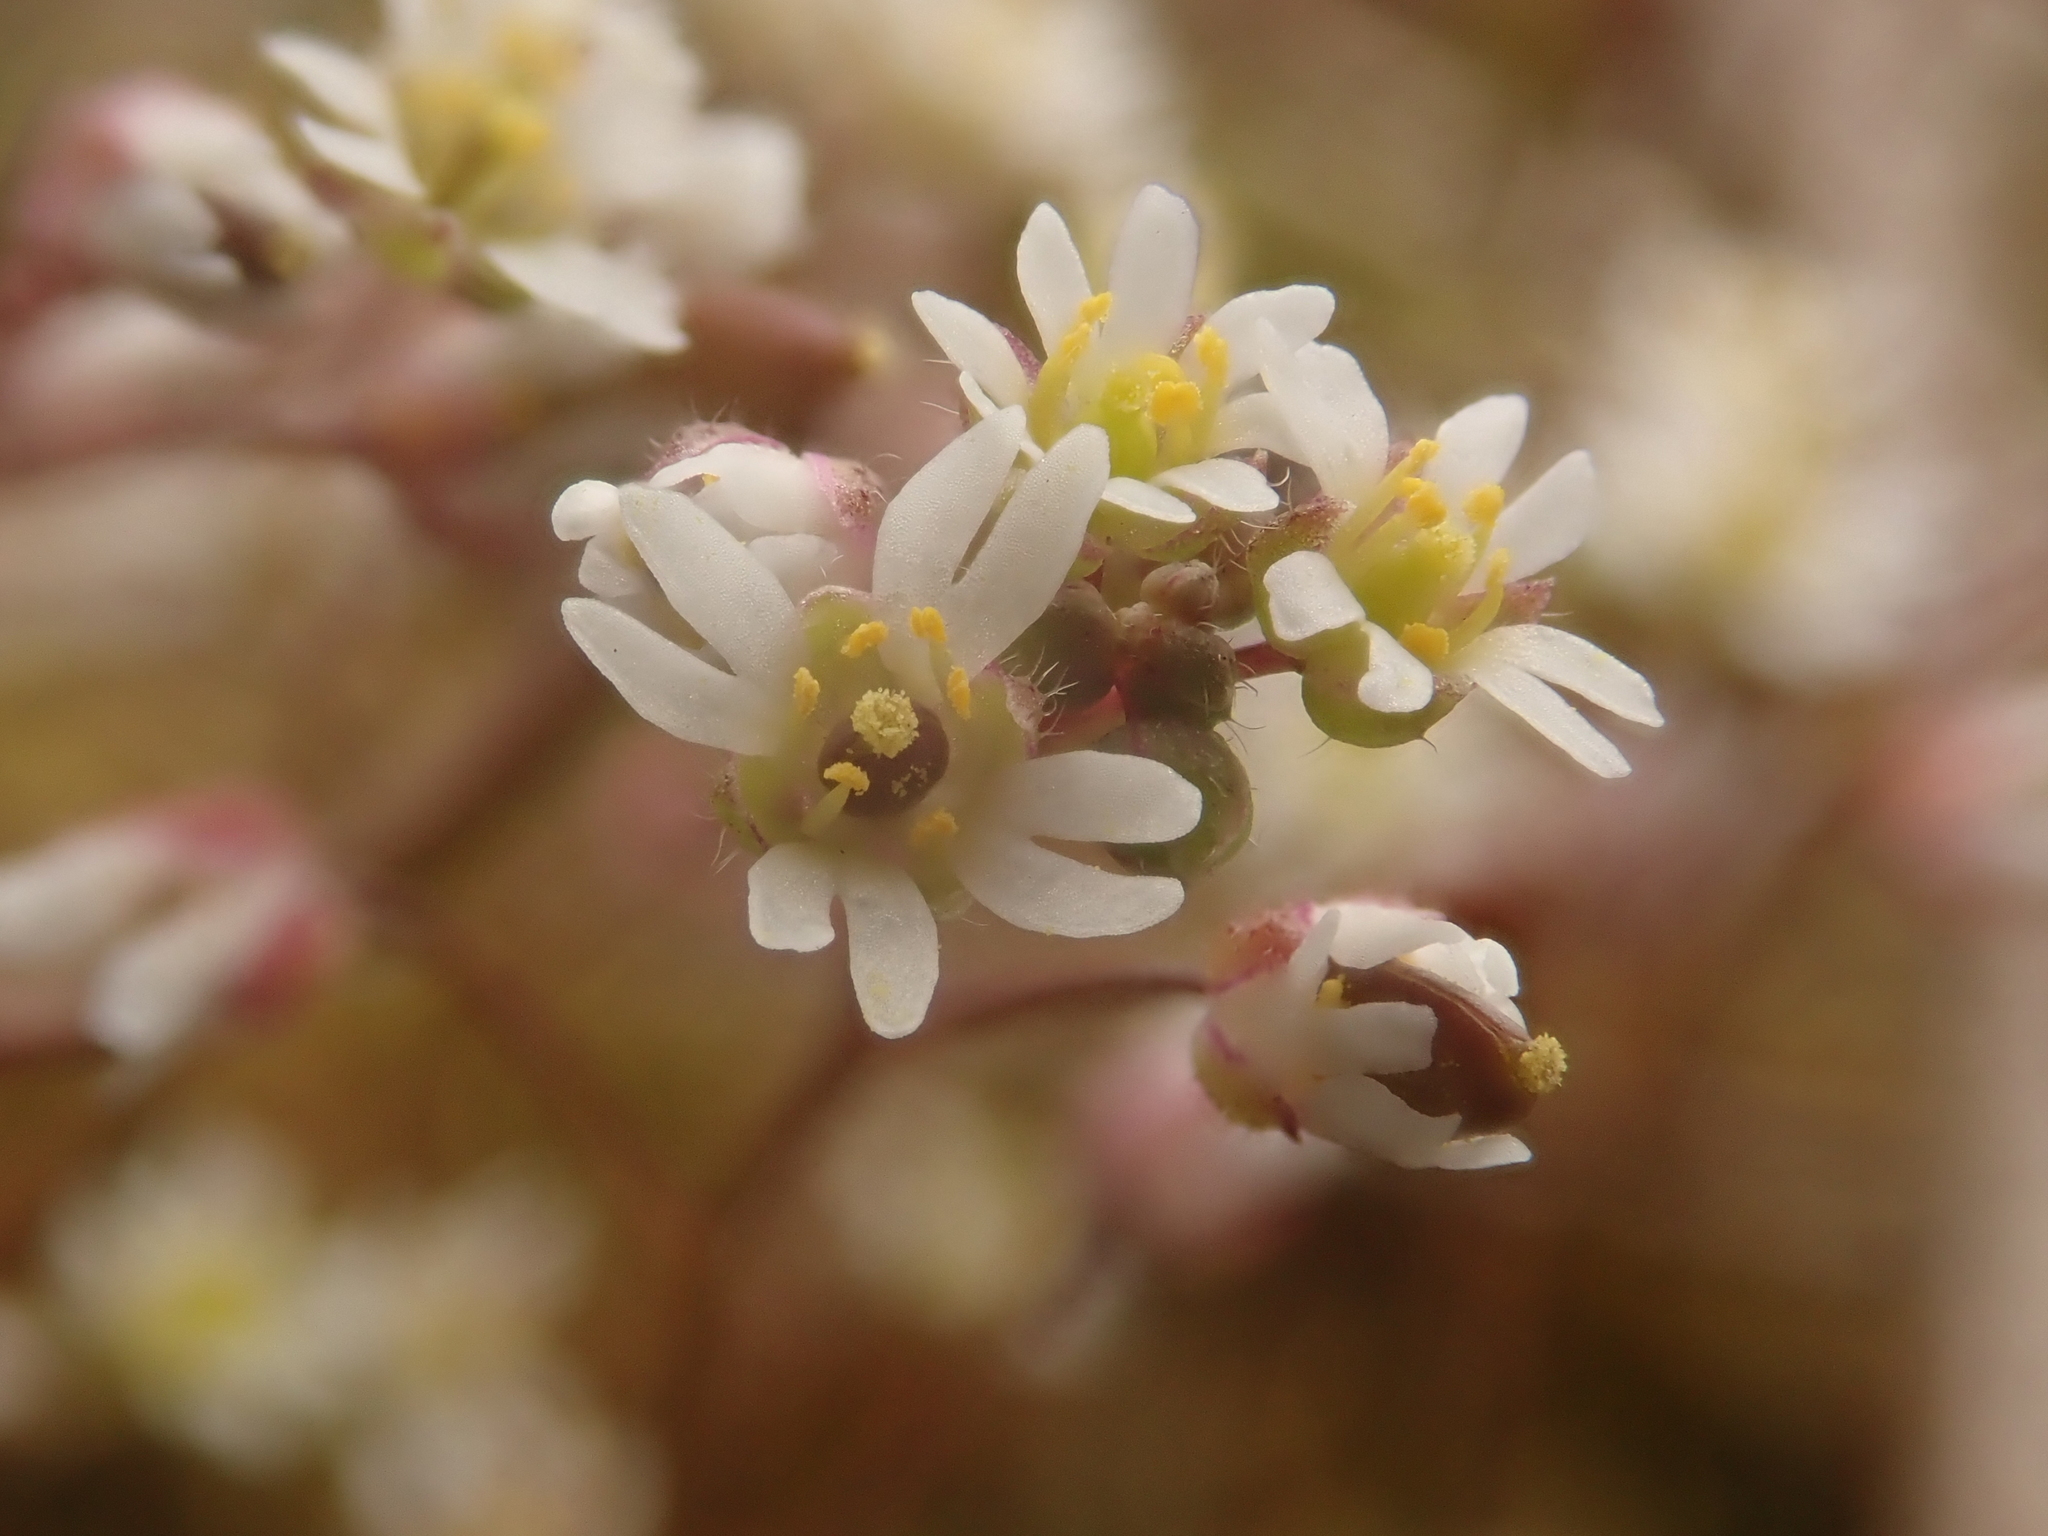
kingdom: Plantae
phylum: Tracheophyta
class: Magnoliopsida
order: Brassicales
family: Brassicaceae
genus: Draba
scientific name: Draba verna
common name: Spring draba
